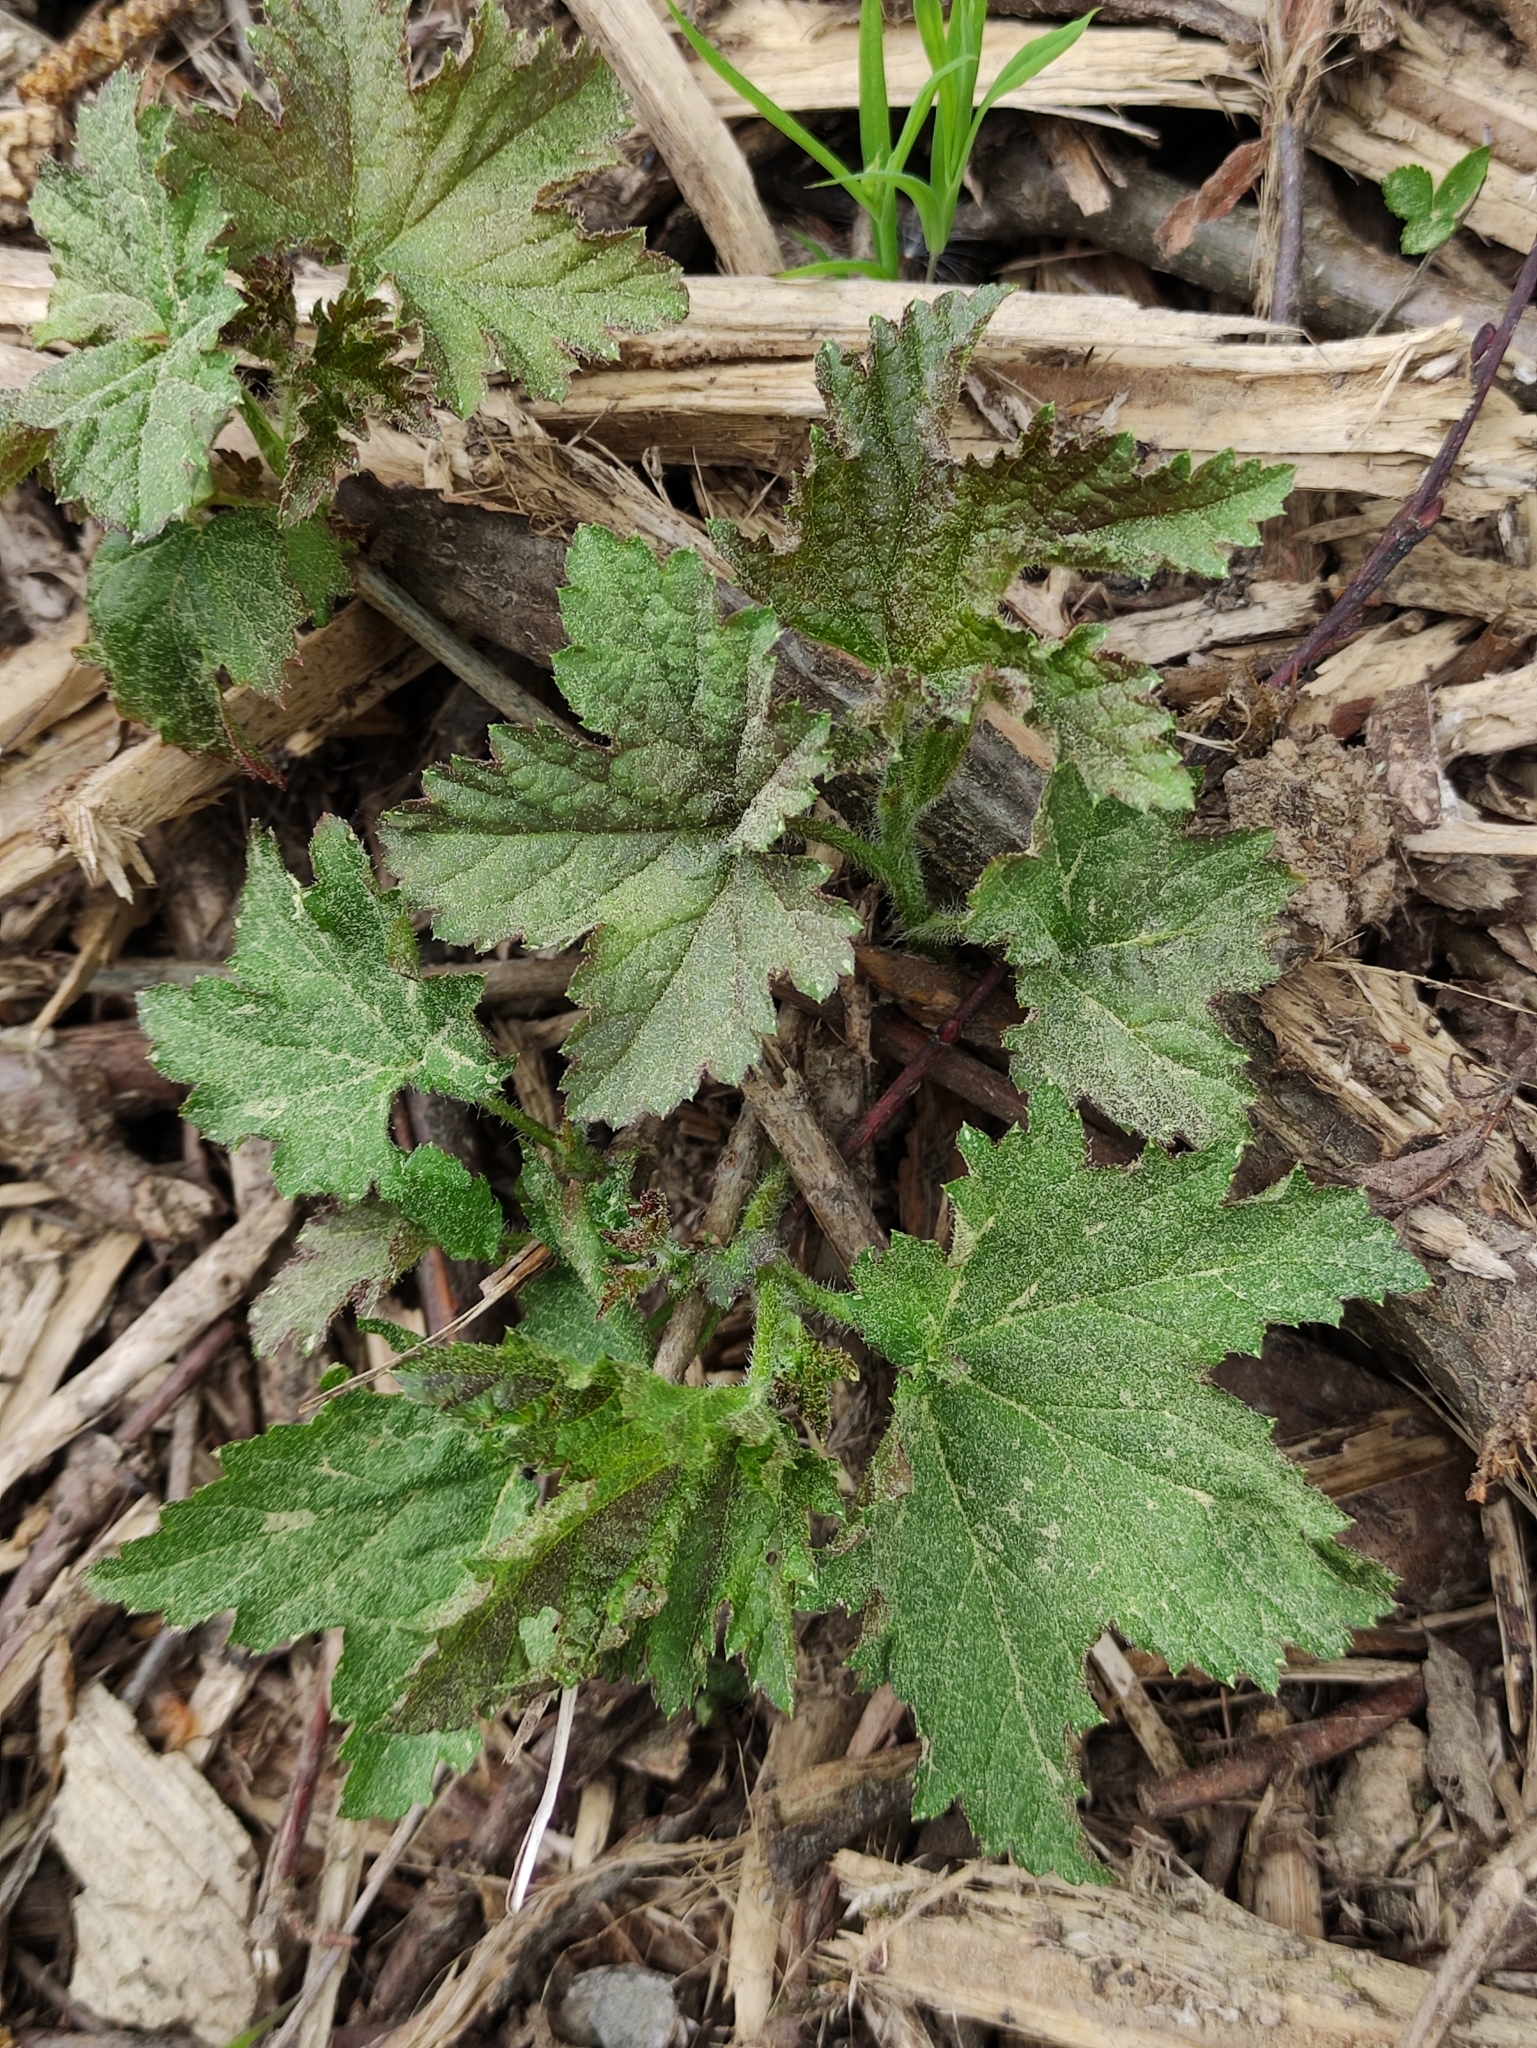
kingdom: Plantae
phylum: Tracheophyta
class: Magnoliopsida
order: Lamiales
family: Lamiaceae
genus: Leonurus
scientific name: Leonurus quinquelobatus
